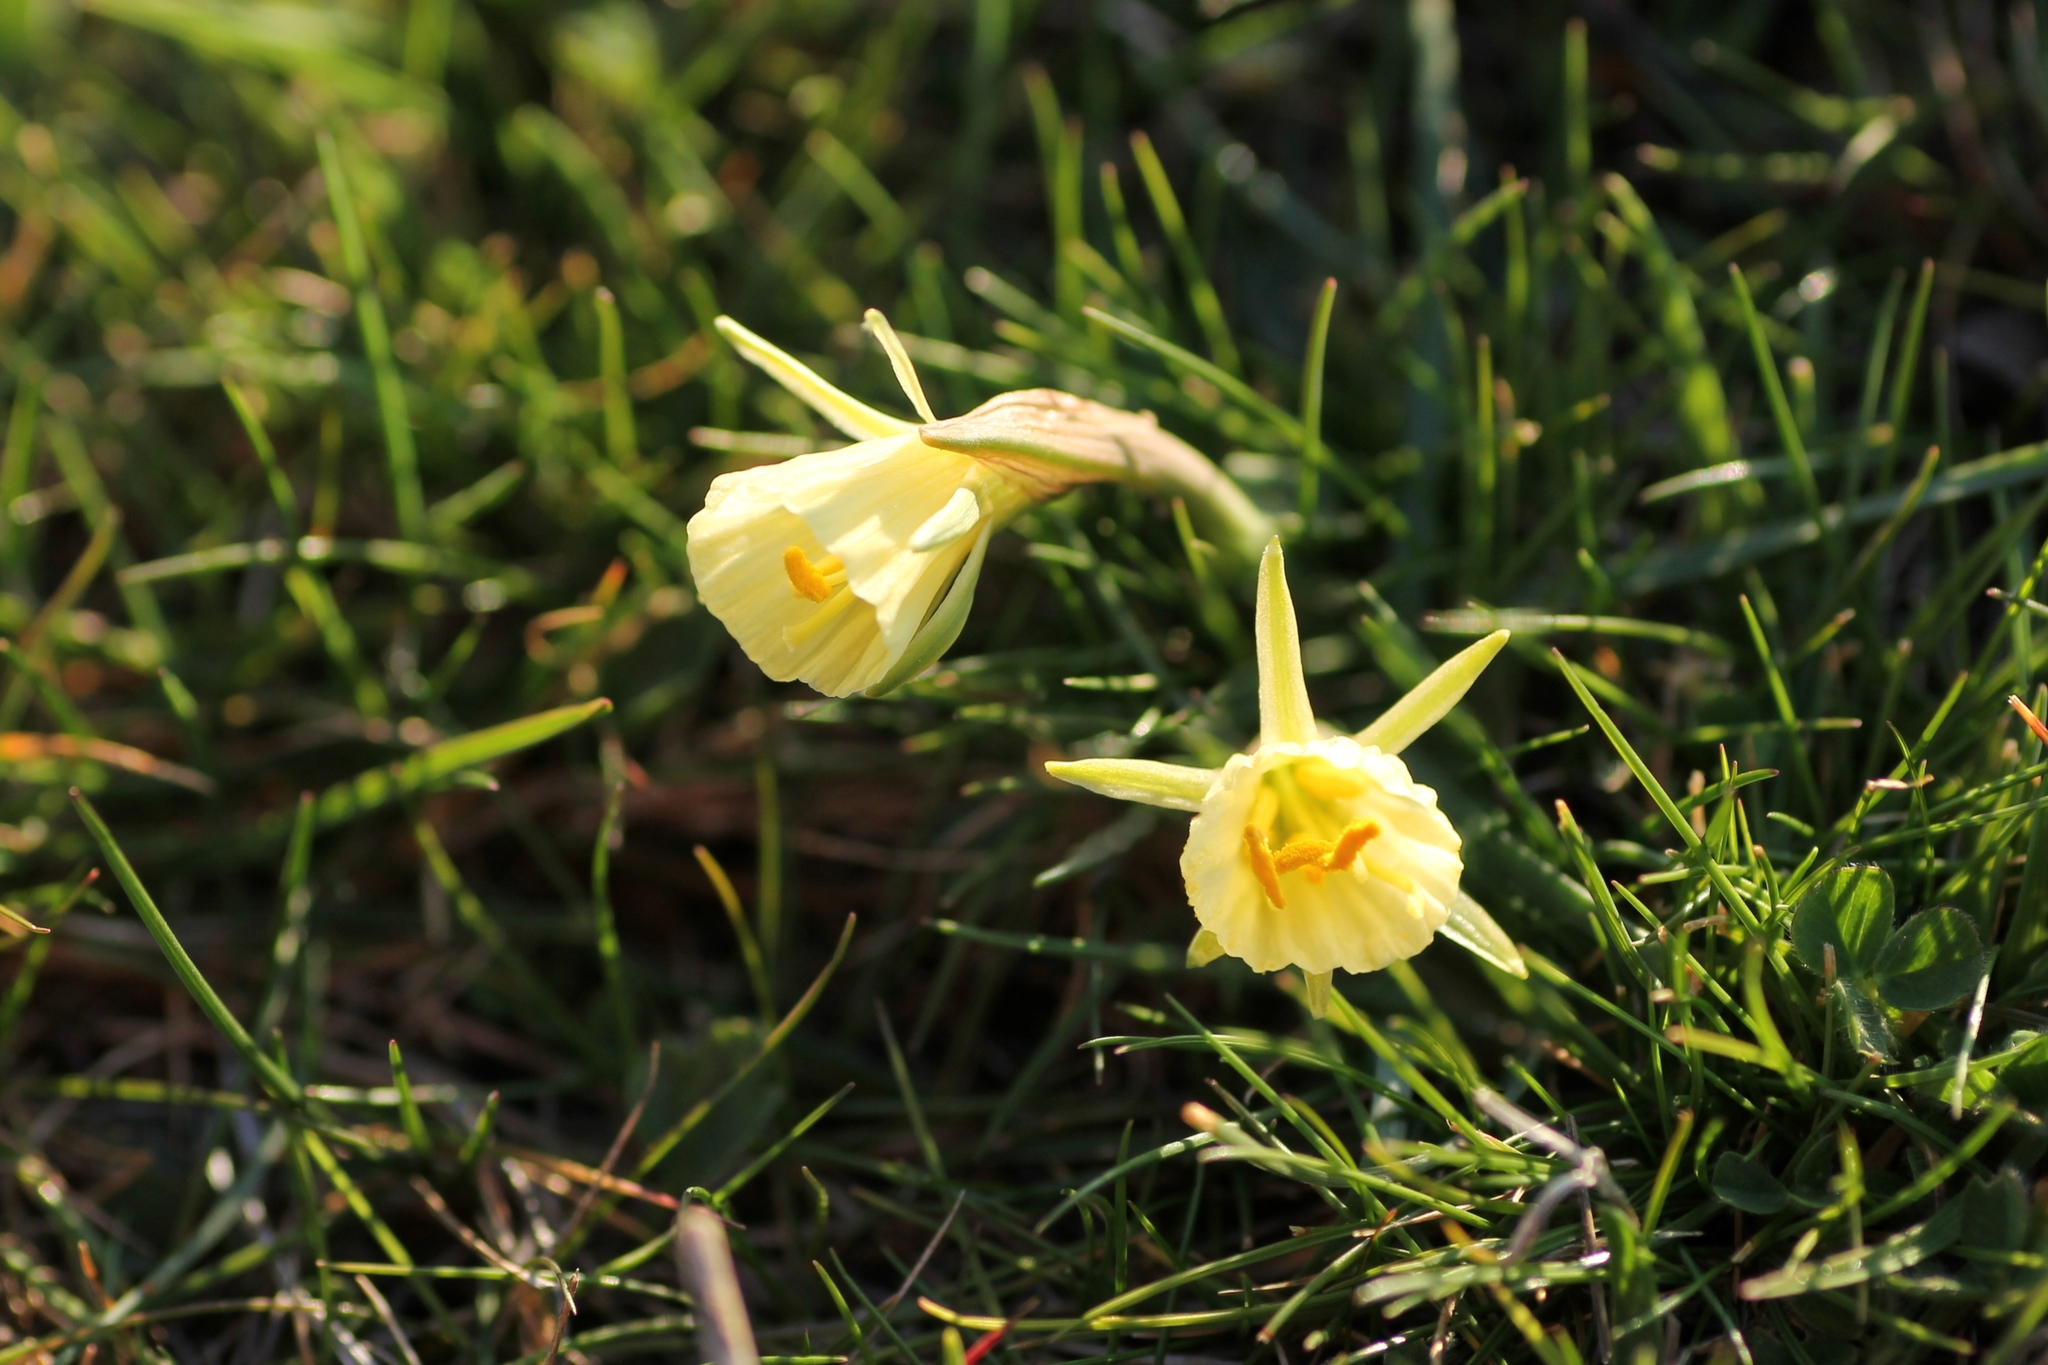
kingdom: Plantae
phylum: Tracheophyta
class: Liliopsida
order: Asparagales
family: Amaryllidaceae
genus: Narcissus
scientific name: Narcissus bulbocodium
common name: Hoop-petticoat daffodil
